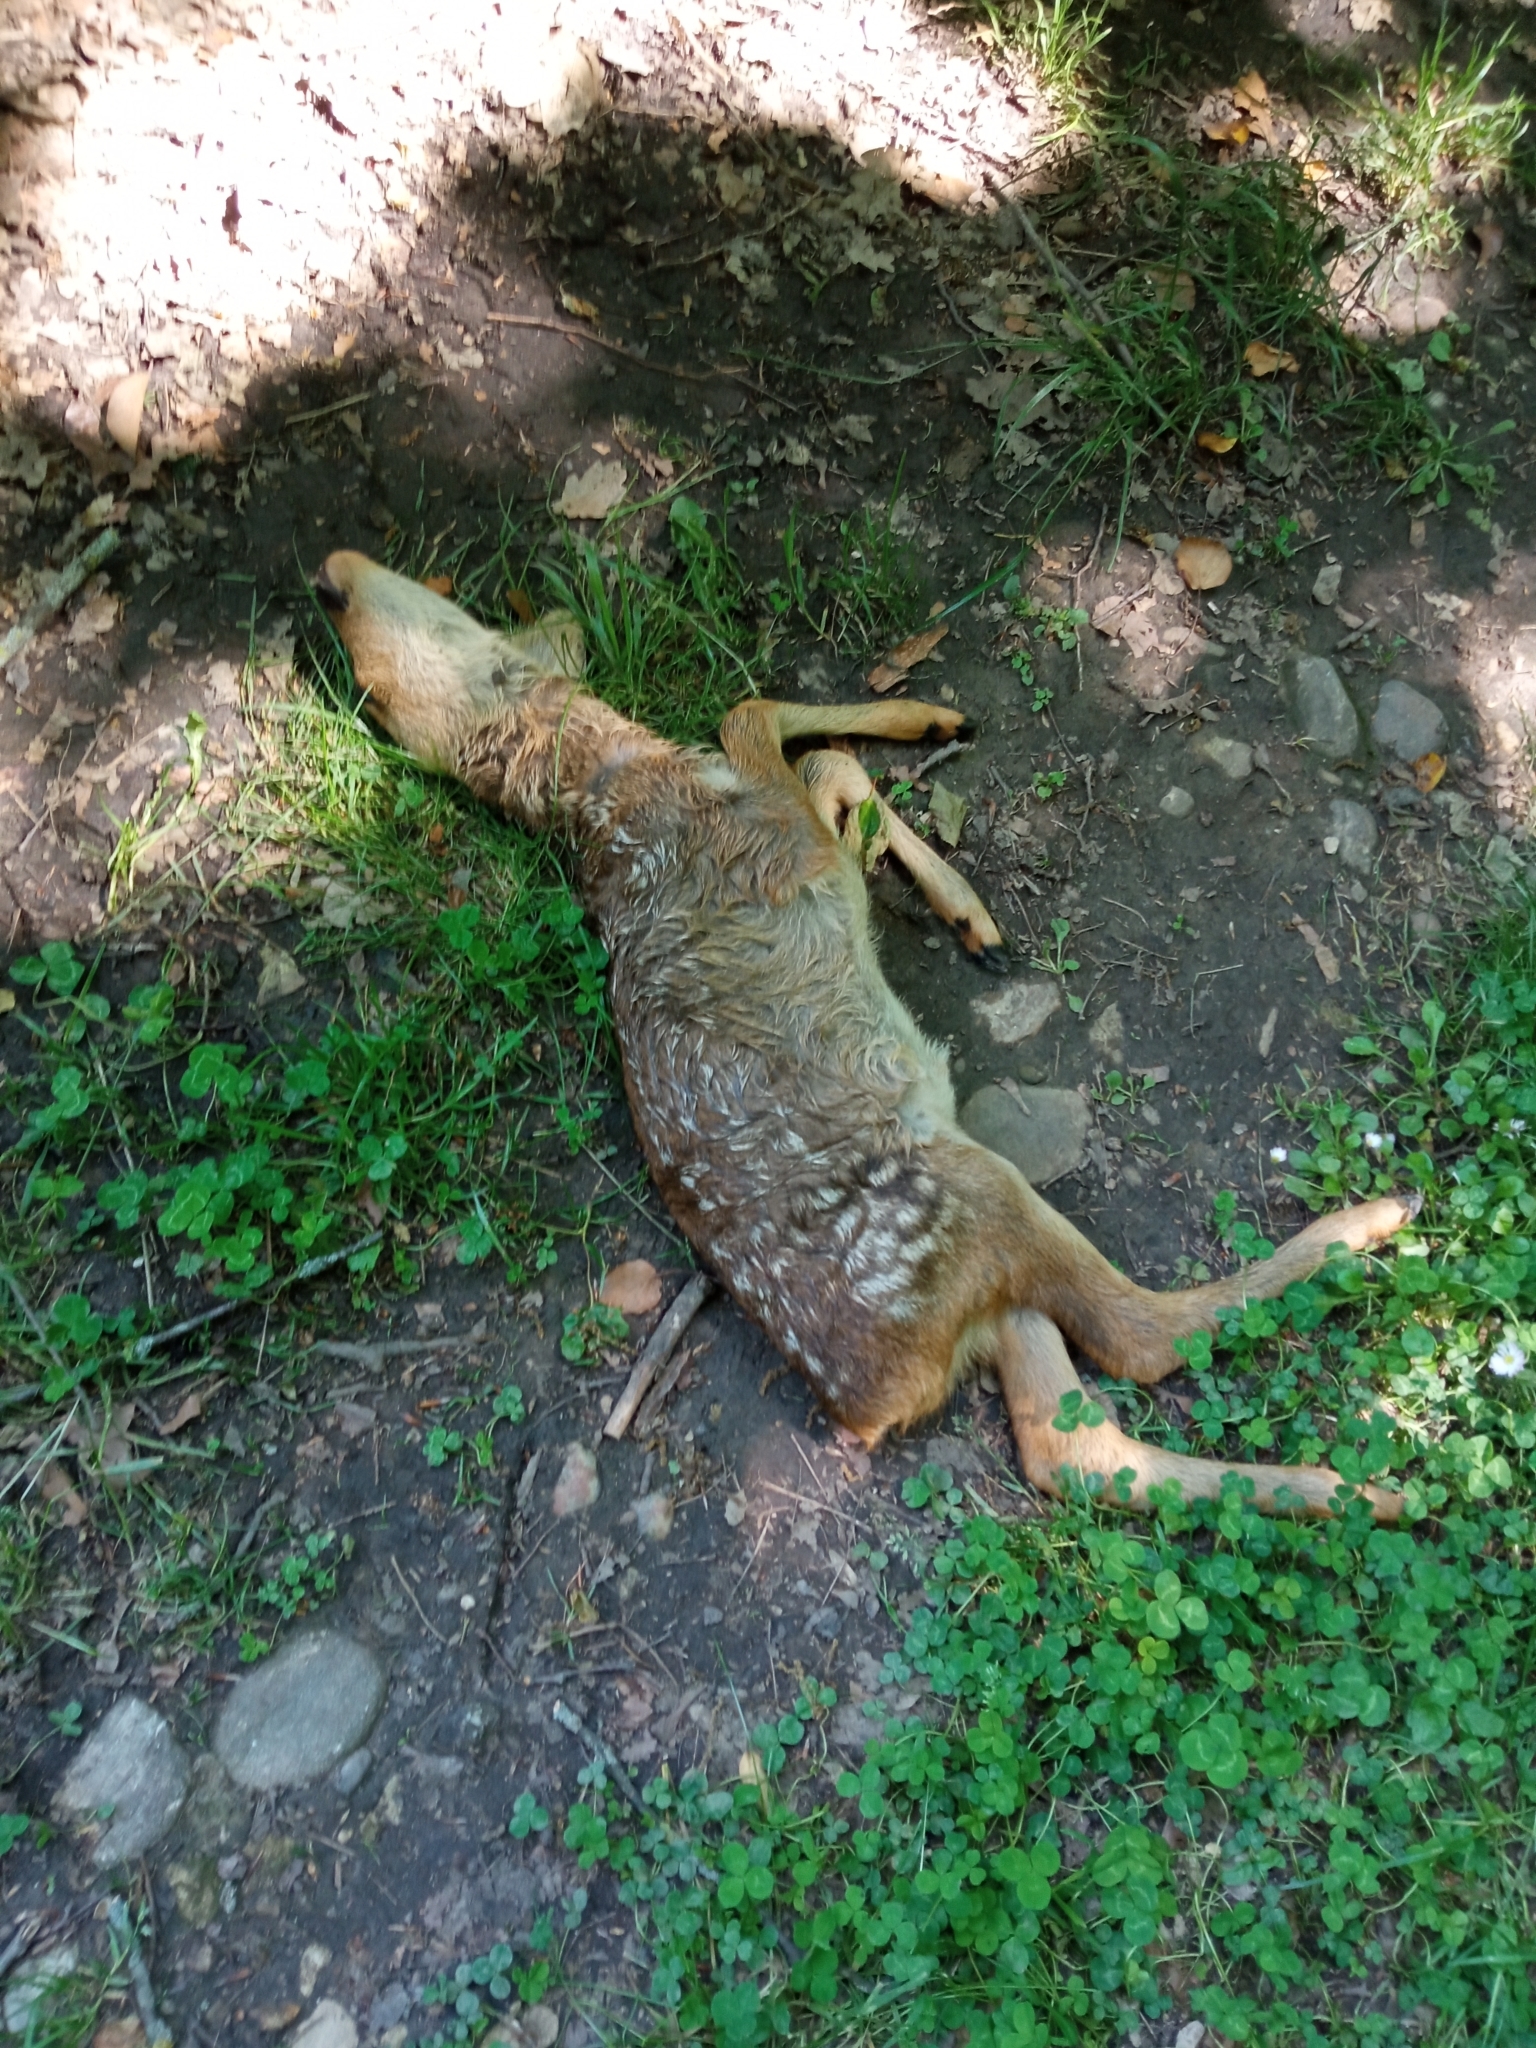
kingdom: Animalia
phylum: Chordata
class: Mammalia
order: Artiodactyla
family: Cervidae
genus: Capreolus
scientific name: Capreolus capreolus
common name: Western roe deer
